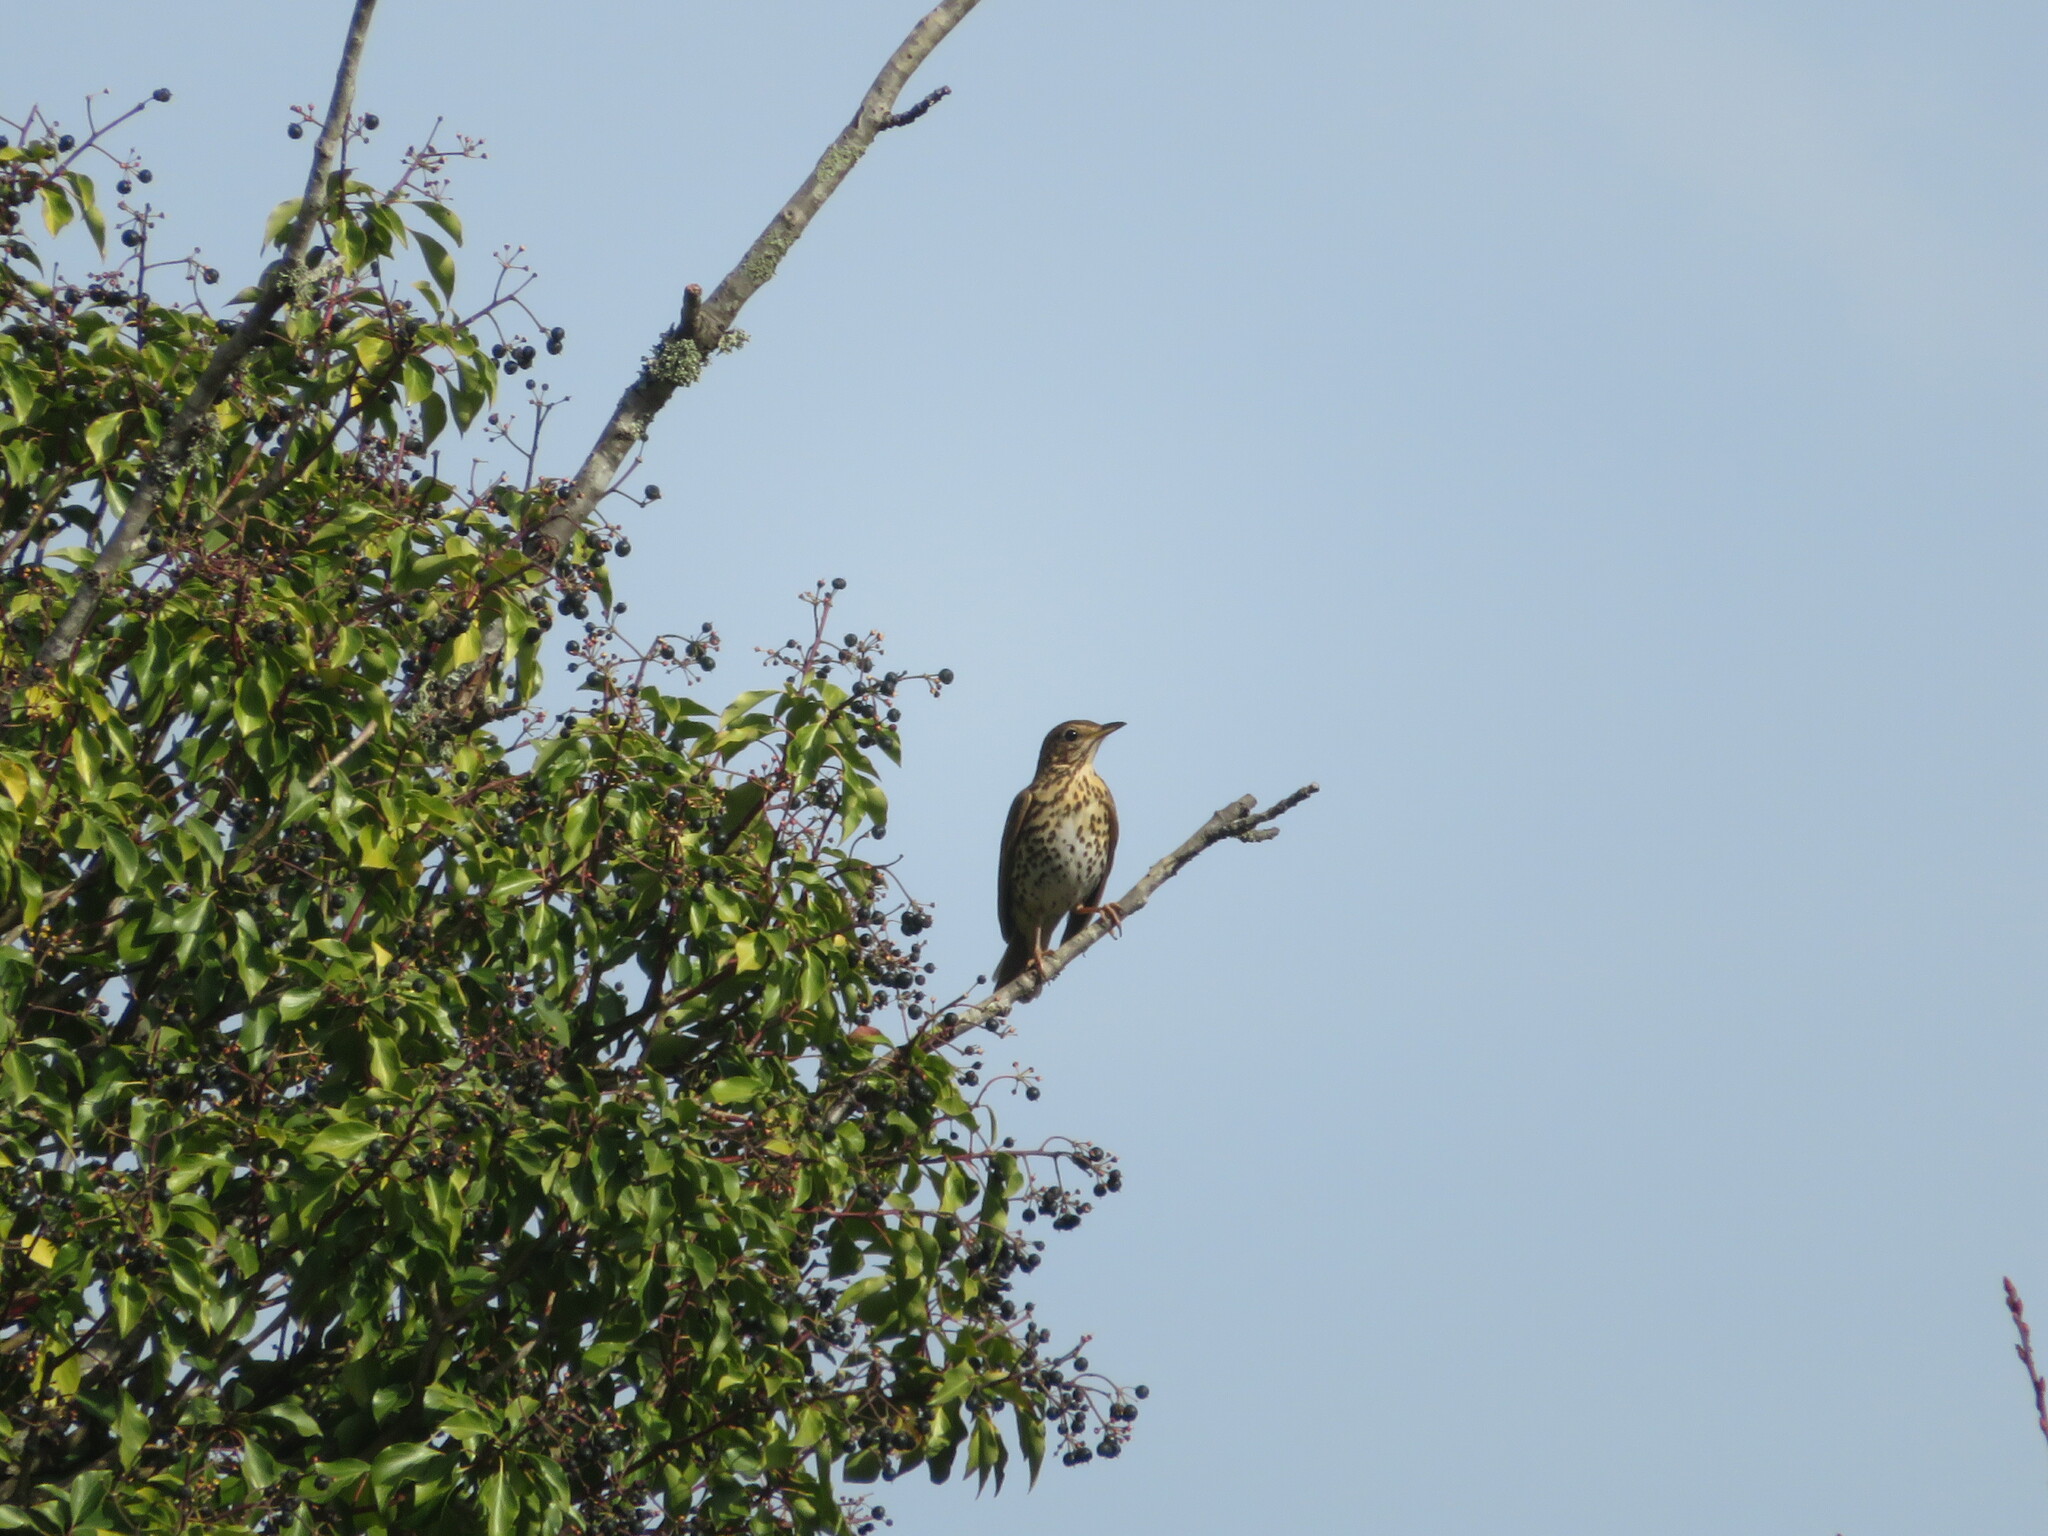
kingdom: Animalia
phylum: Chordata
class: Aves
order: Passeriformes
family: Turdidae
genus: Turdus
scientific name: Turdus philomelos
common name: Song thrush
